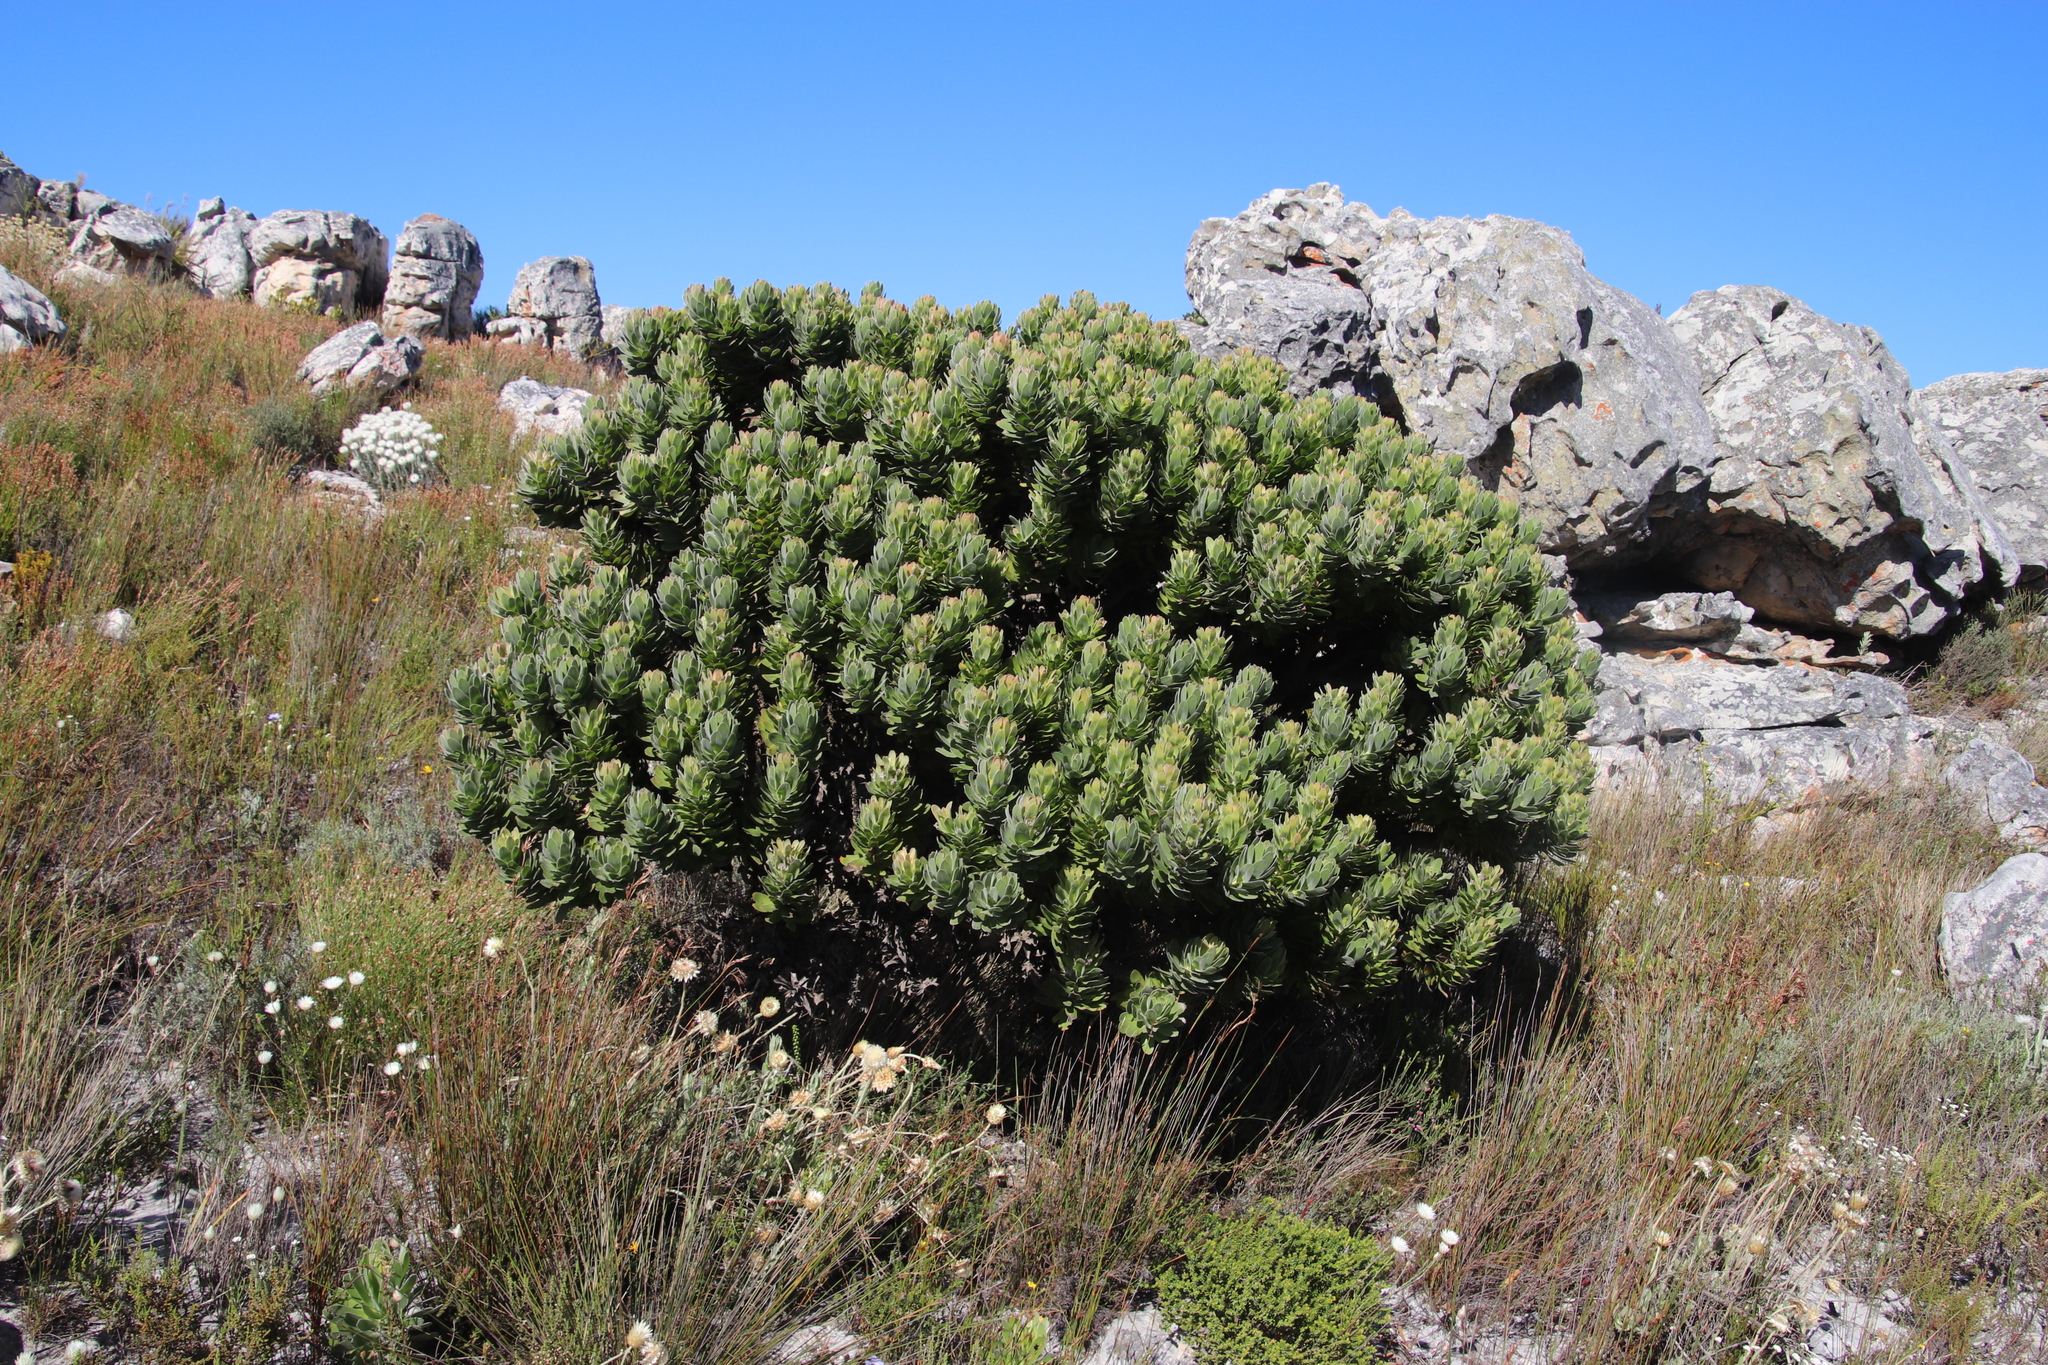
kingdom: Plantae
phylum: Tracheophyta
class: Magnoliopsida
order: Proteales
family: Proteaceae
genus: Mimetes
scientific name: Mimetes fimbriifolius
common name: Fringed bottlebrush
